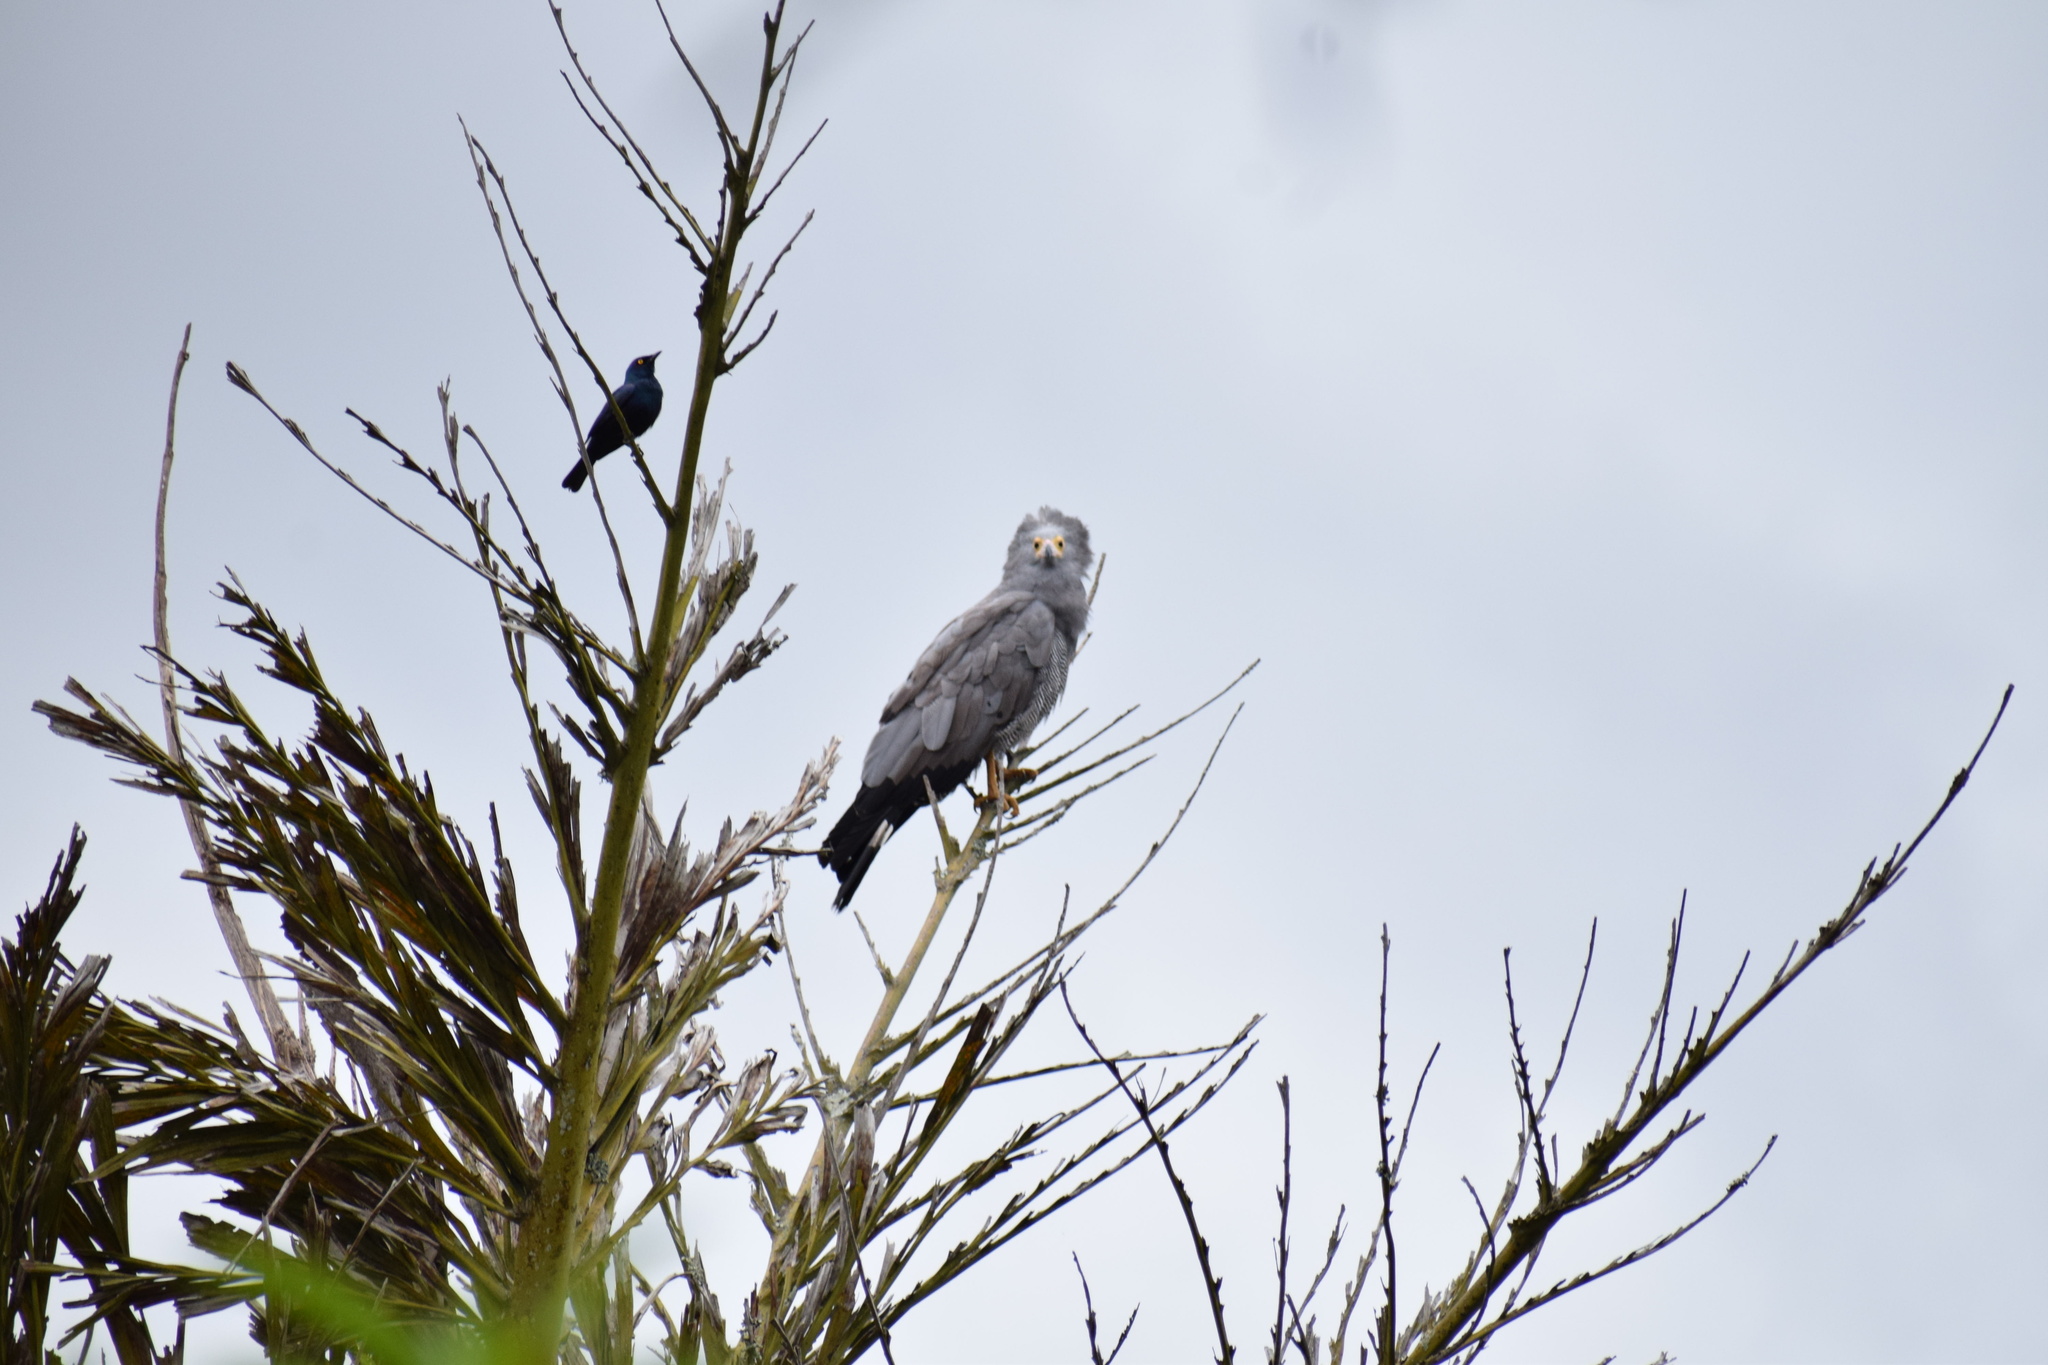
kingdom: Animalia
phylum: Chordata
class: Aves
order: Accipitriformes
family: Accipitridae
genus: Polyboroides
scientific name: Polyboroides typus
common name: African harrier-hawk
